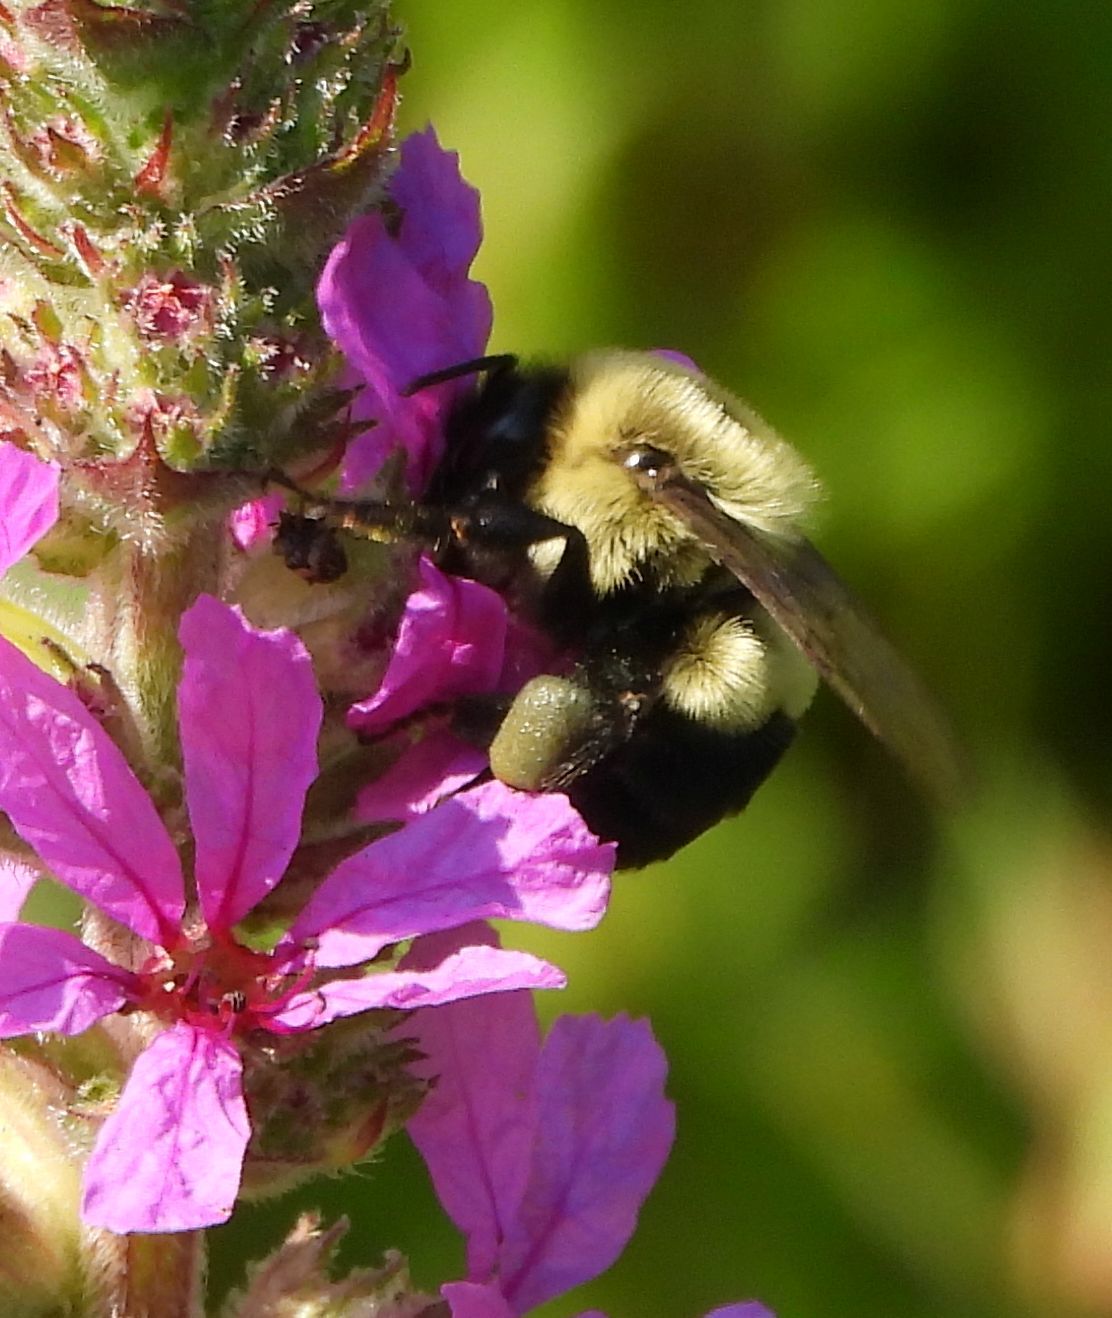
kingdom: Animalia
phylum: Arthropoda
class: Insecta
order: Hymenoptera
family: Apidae
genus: Bombus
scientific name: Bombus impatiens
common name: Common eastern bumble bee
